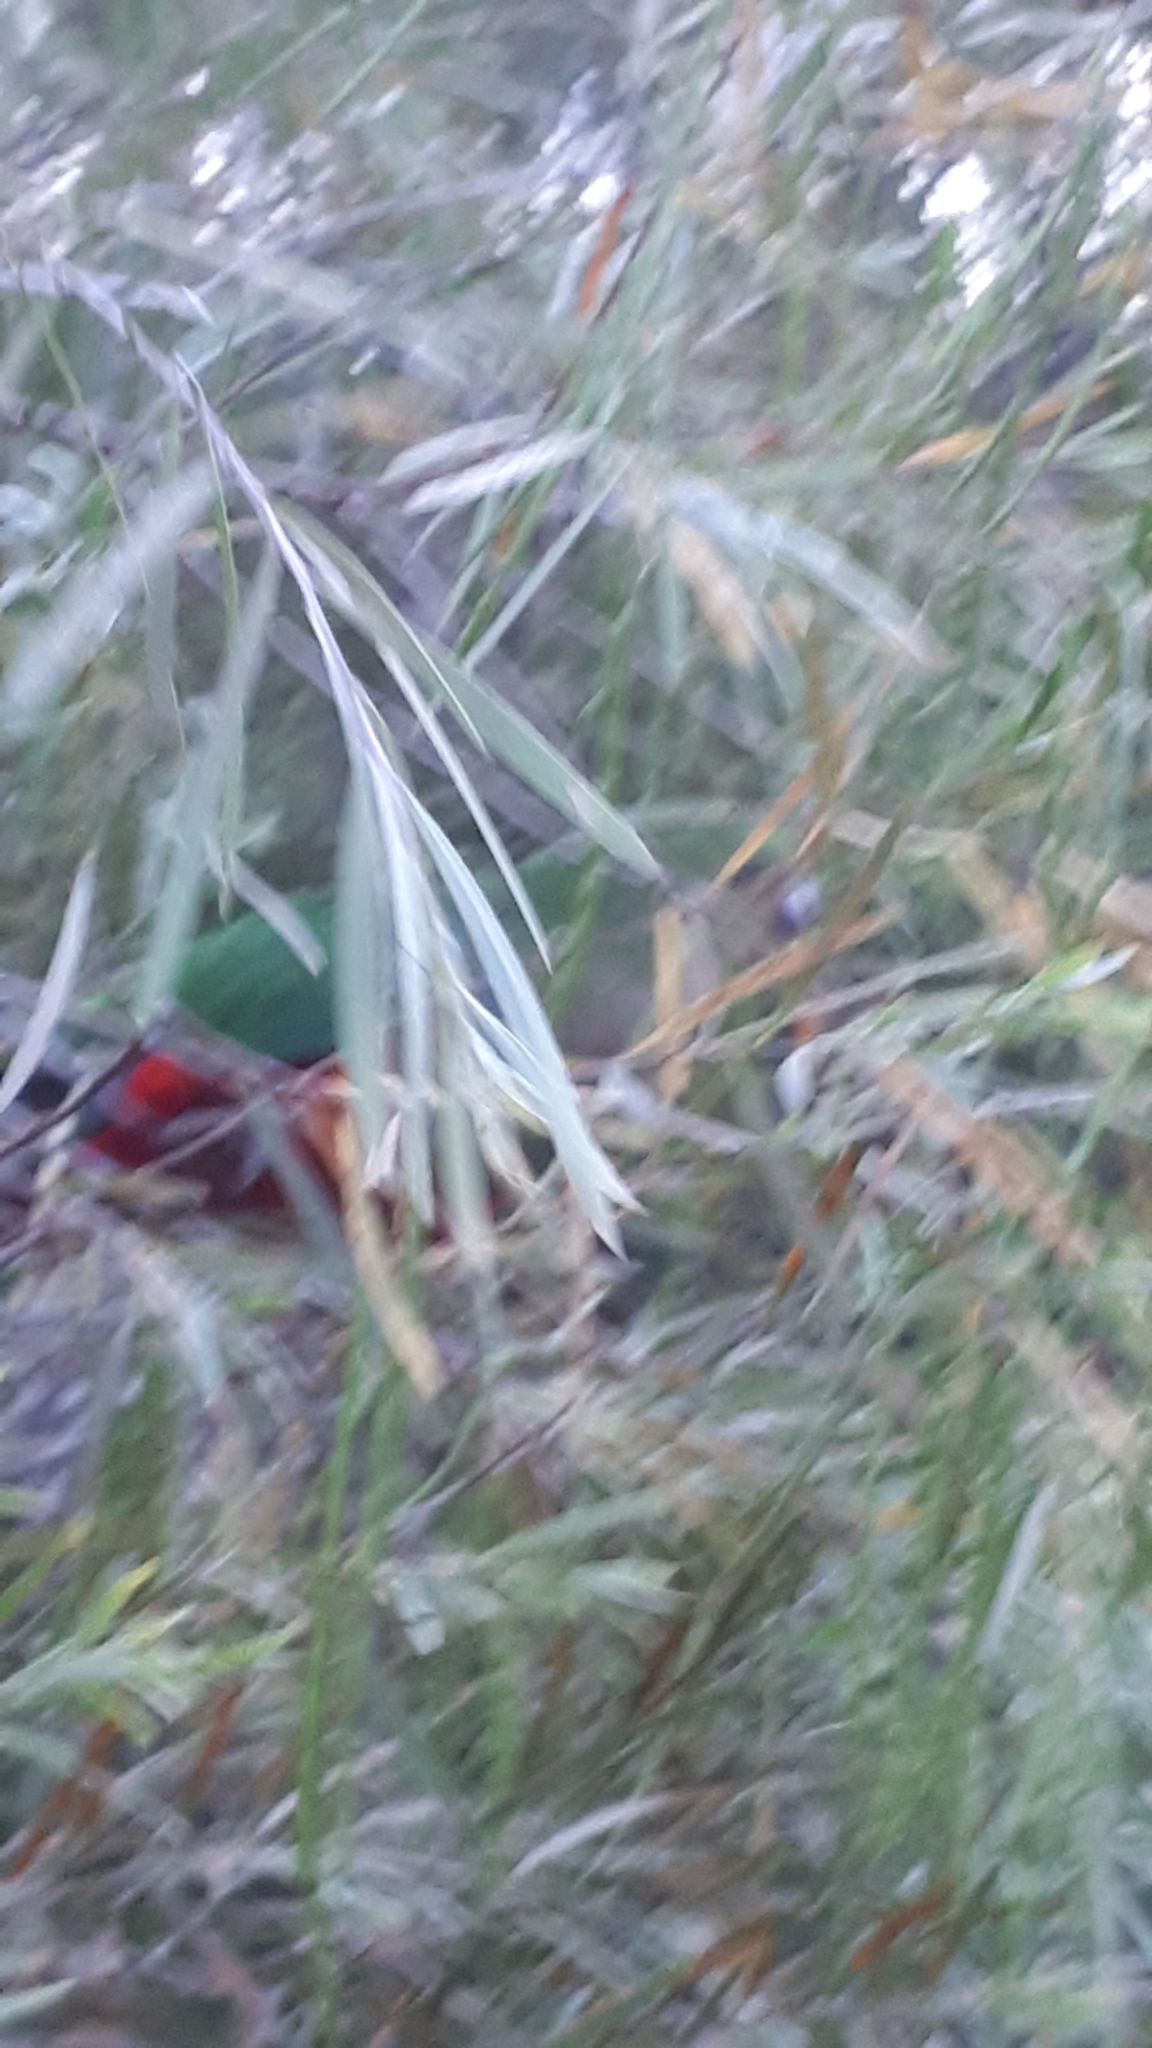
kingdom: Animalia
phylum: Chordata
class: Aves
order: Psittaciformes
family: Psittacidae
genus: Alisterus
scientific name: Alisterus scapularis
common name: Australian king parrot
